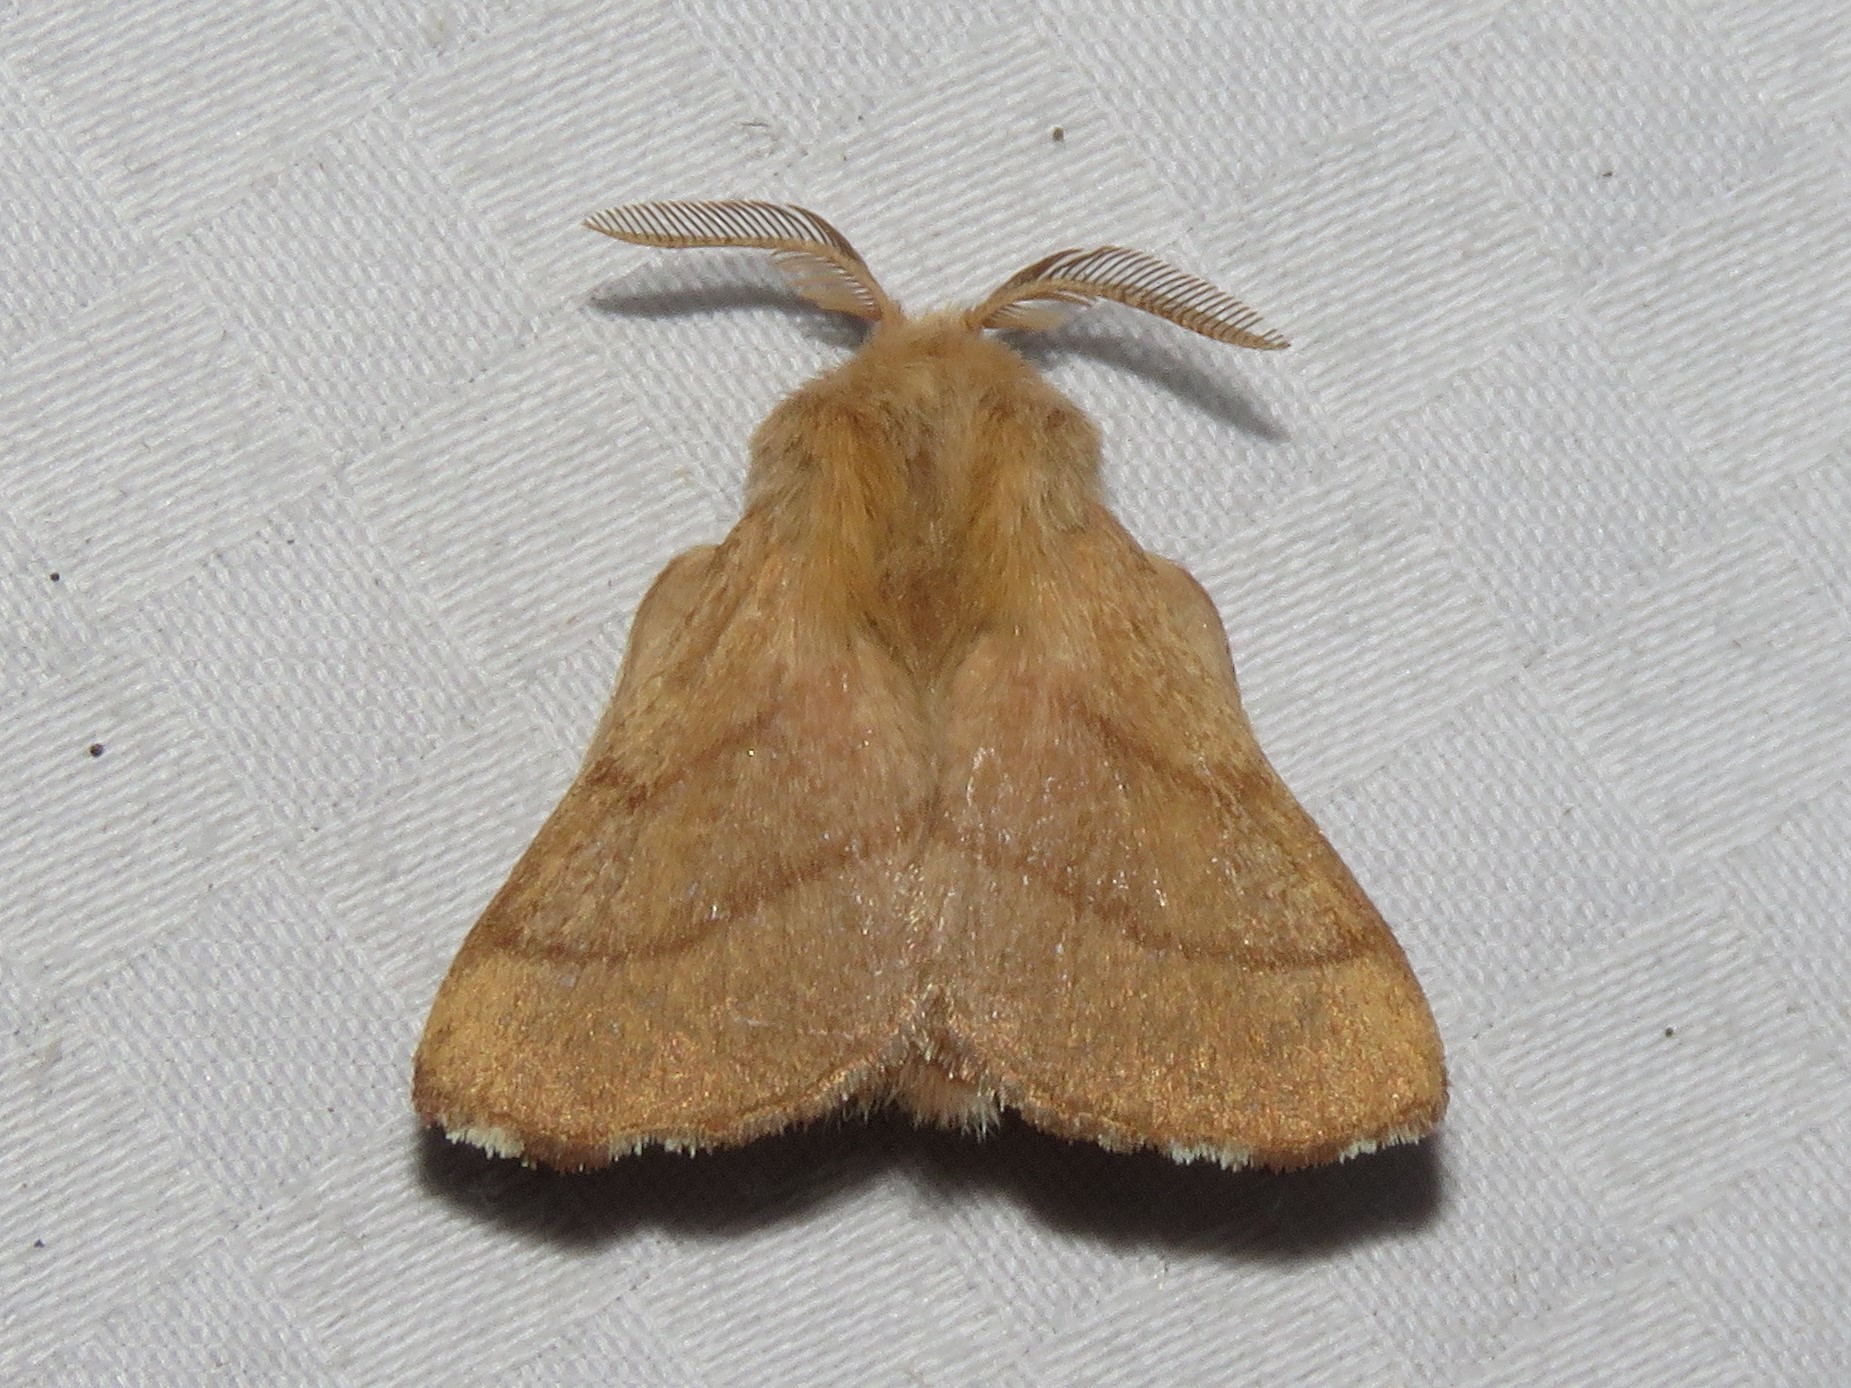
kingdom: Animalia
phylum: Arthropoda
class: Insecta
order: Lepidoptera
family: Lasiocampidae
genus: Malacosoma
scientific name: Malacosoma disstria
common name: Forest tent caterpillar
